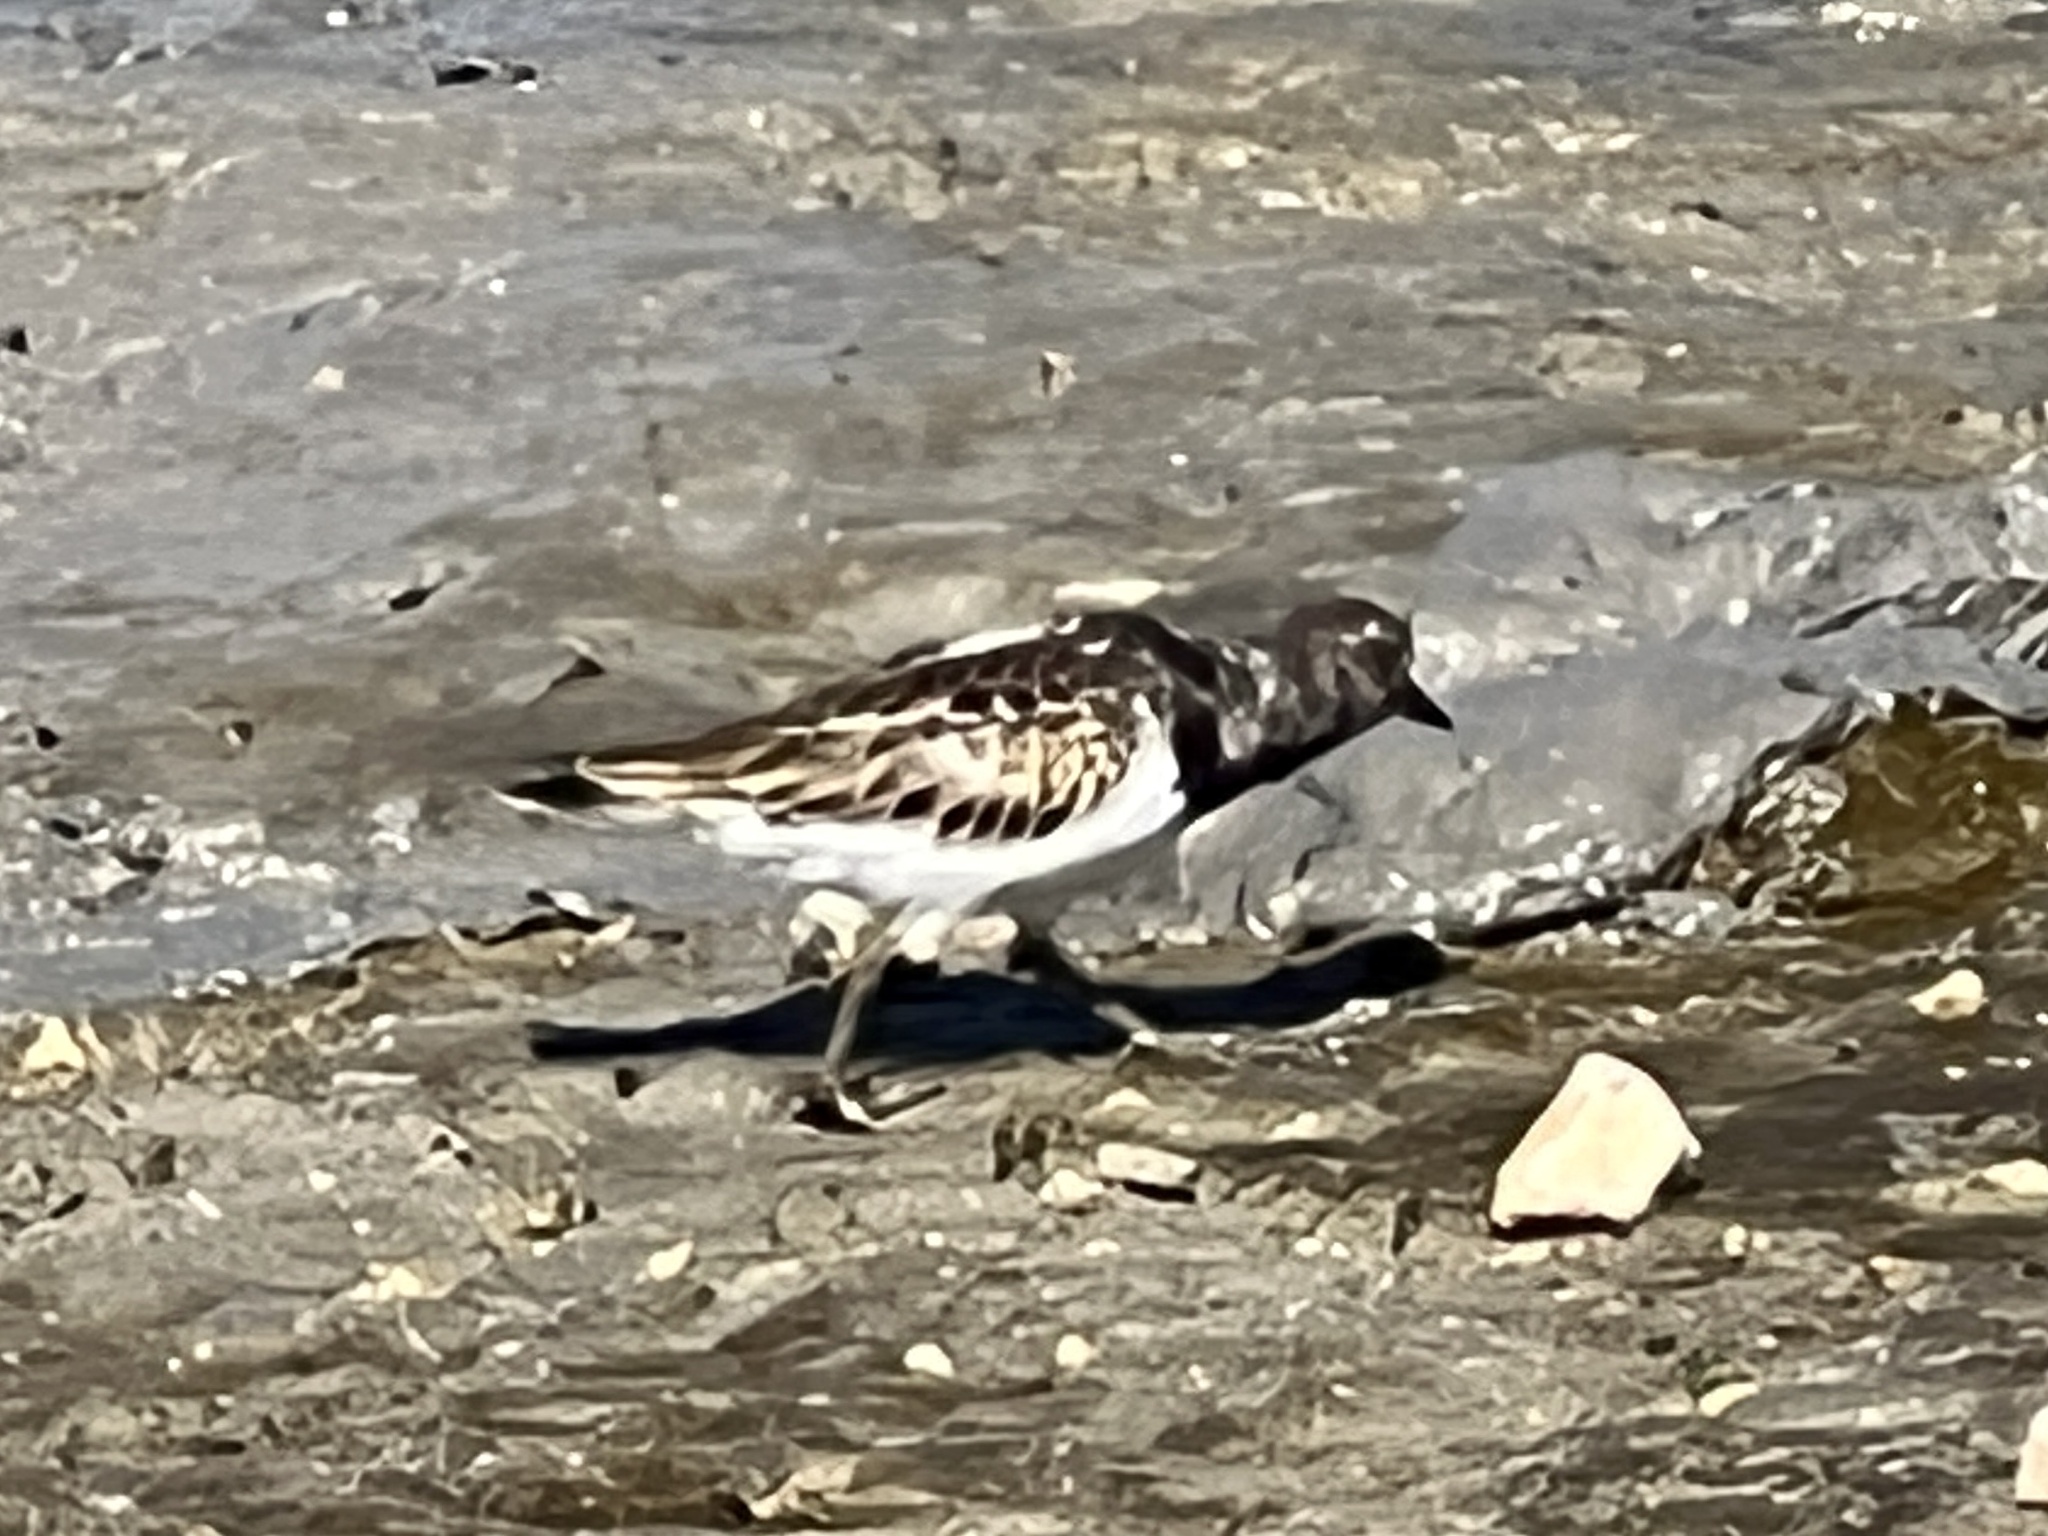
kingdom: Animalia
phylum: Chordata
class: Aves
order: Charadriiformes
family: Scolopacidae
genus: Arenaria
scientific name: Arenaria interpres
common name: Ruddy turnstone
